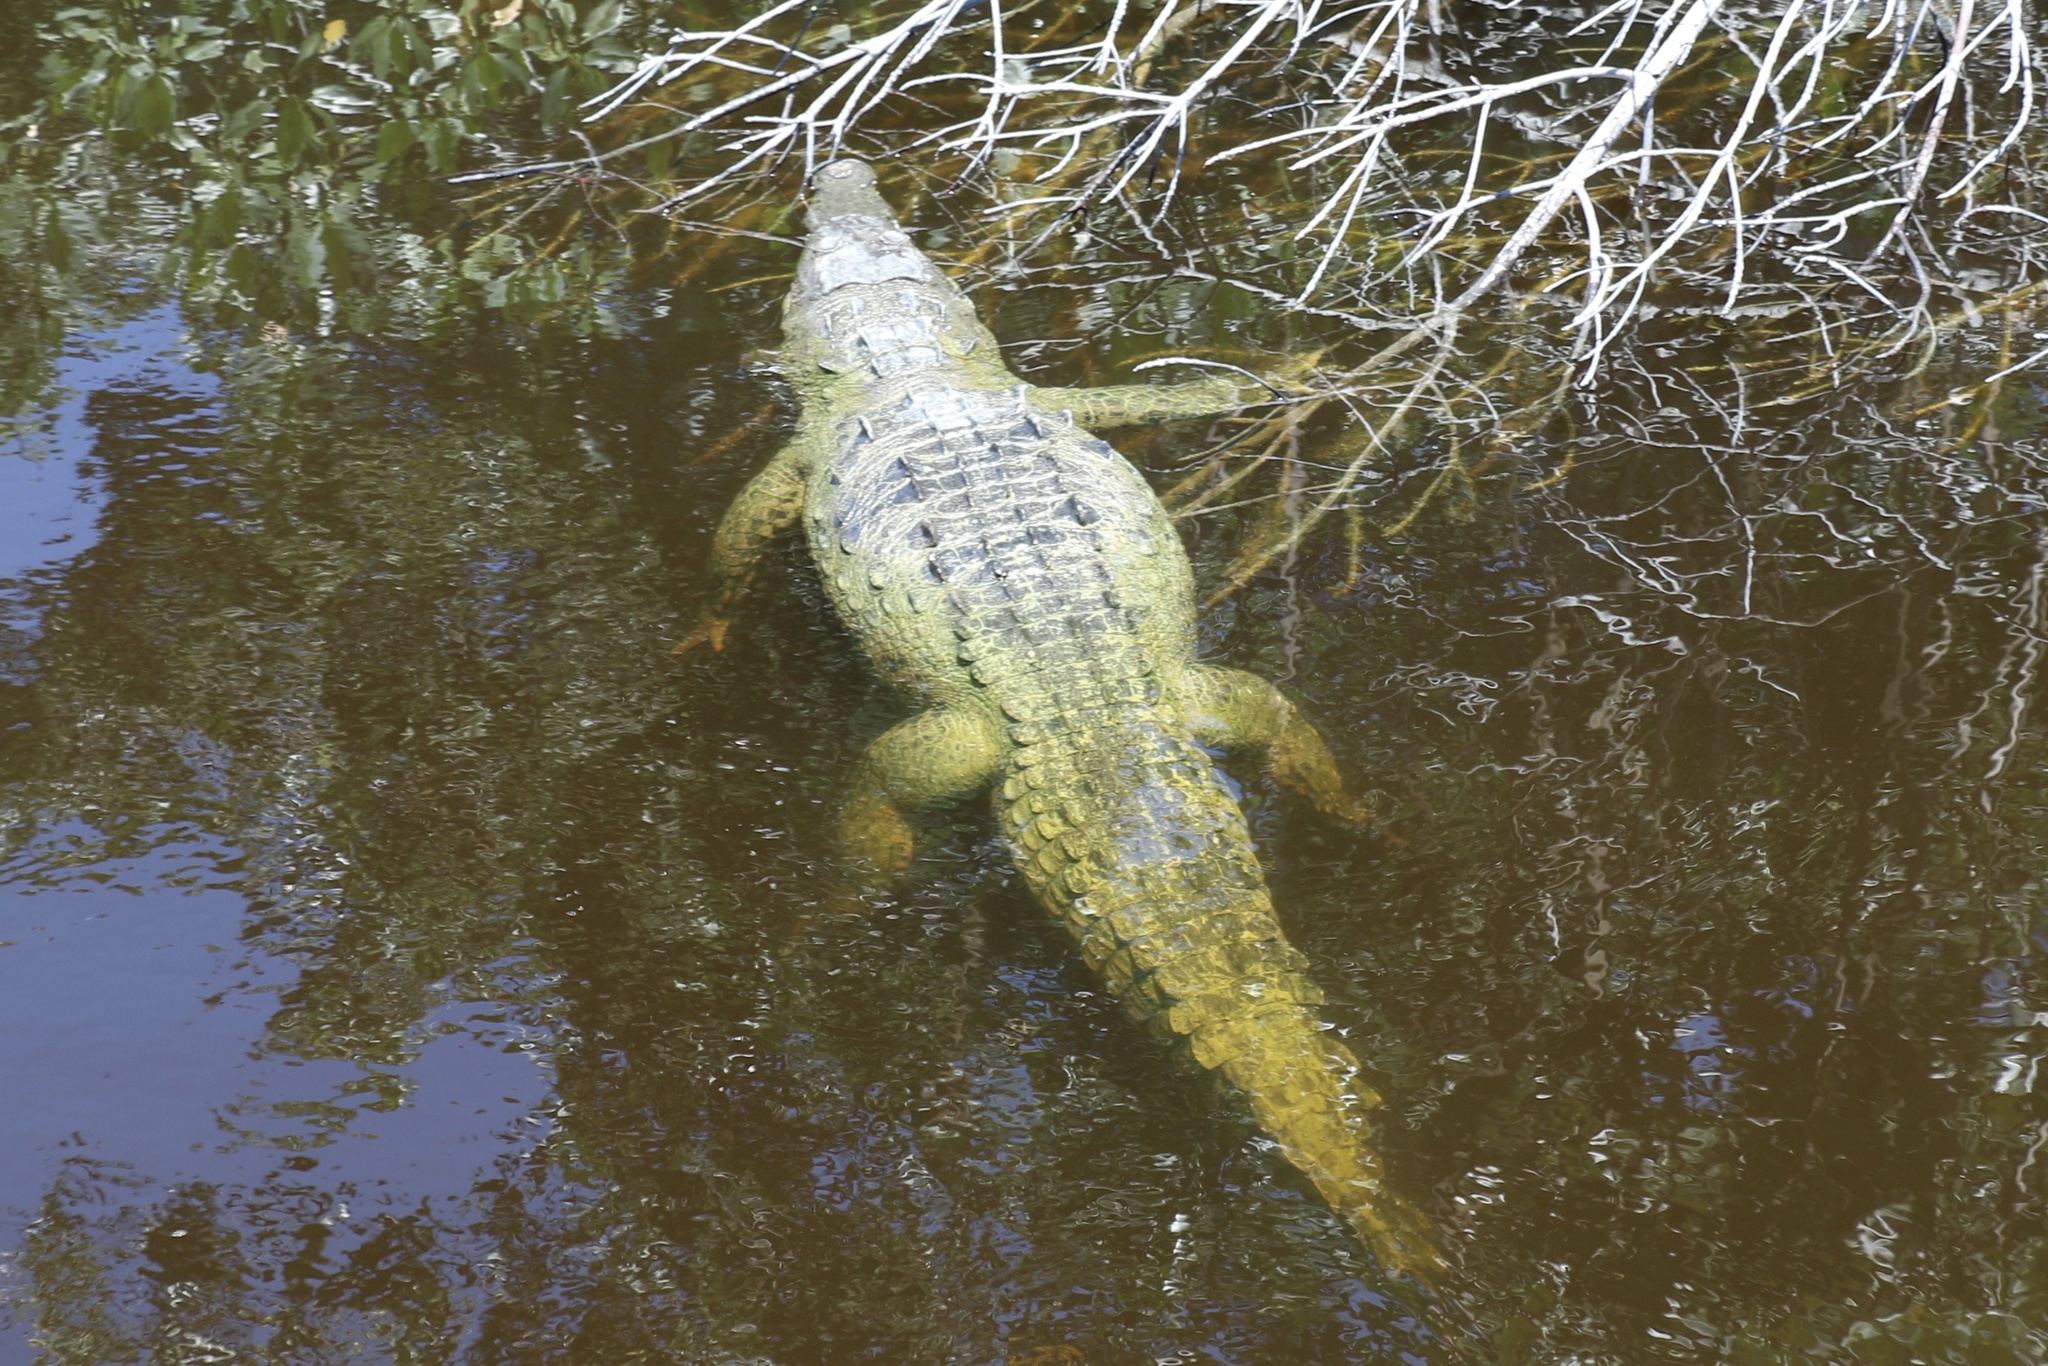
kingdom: Animalia
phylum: Chordata
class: Crocodylia
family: Crocodylidae
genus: Crocodylus
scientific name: Crocodylus acutus
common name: American crocodile
